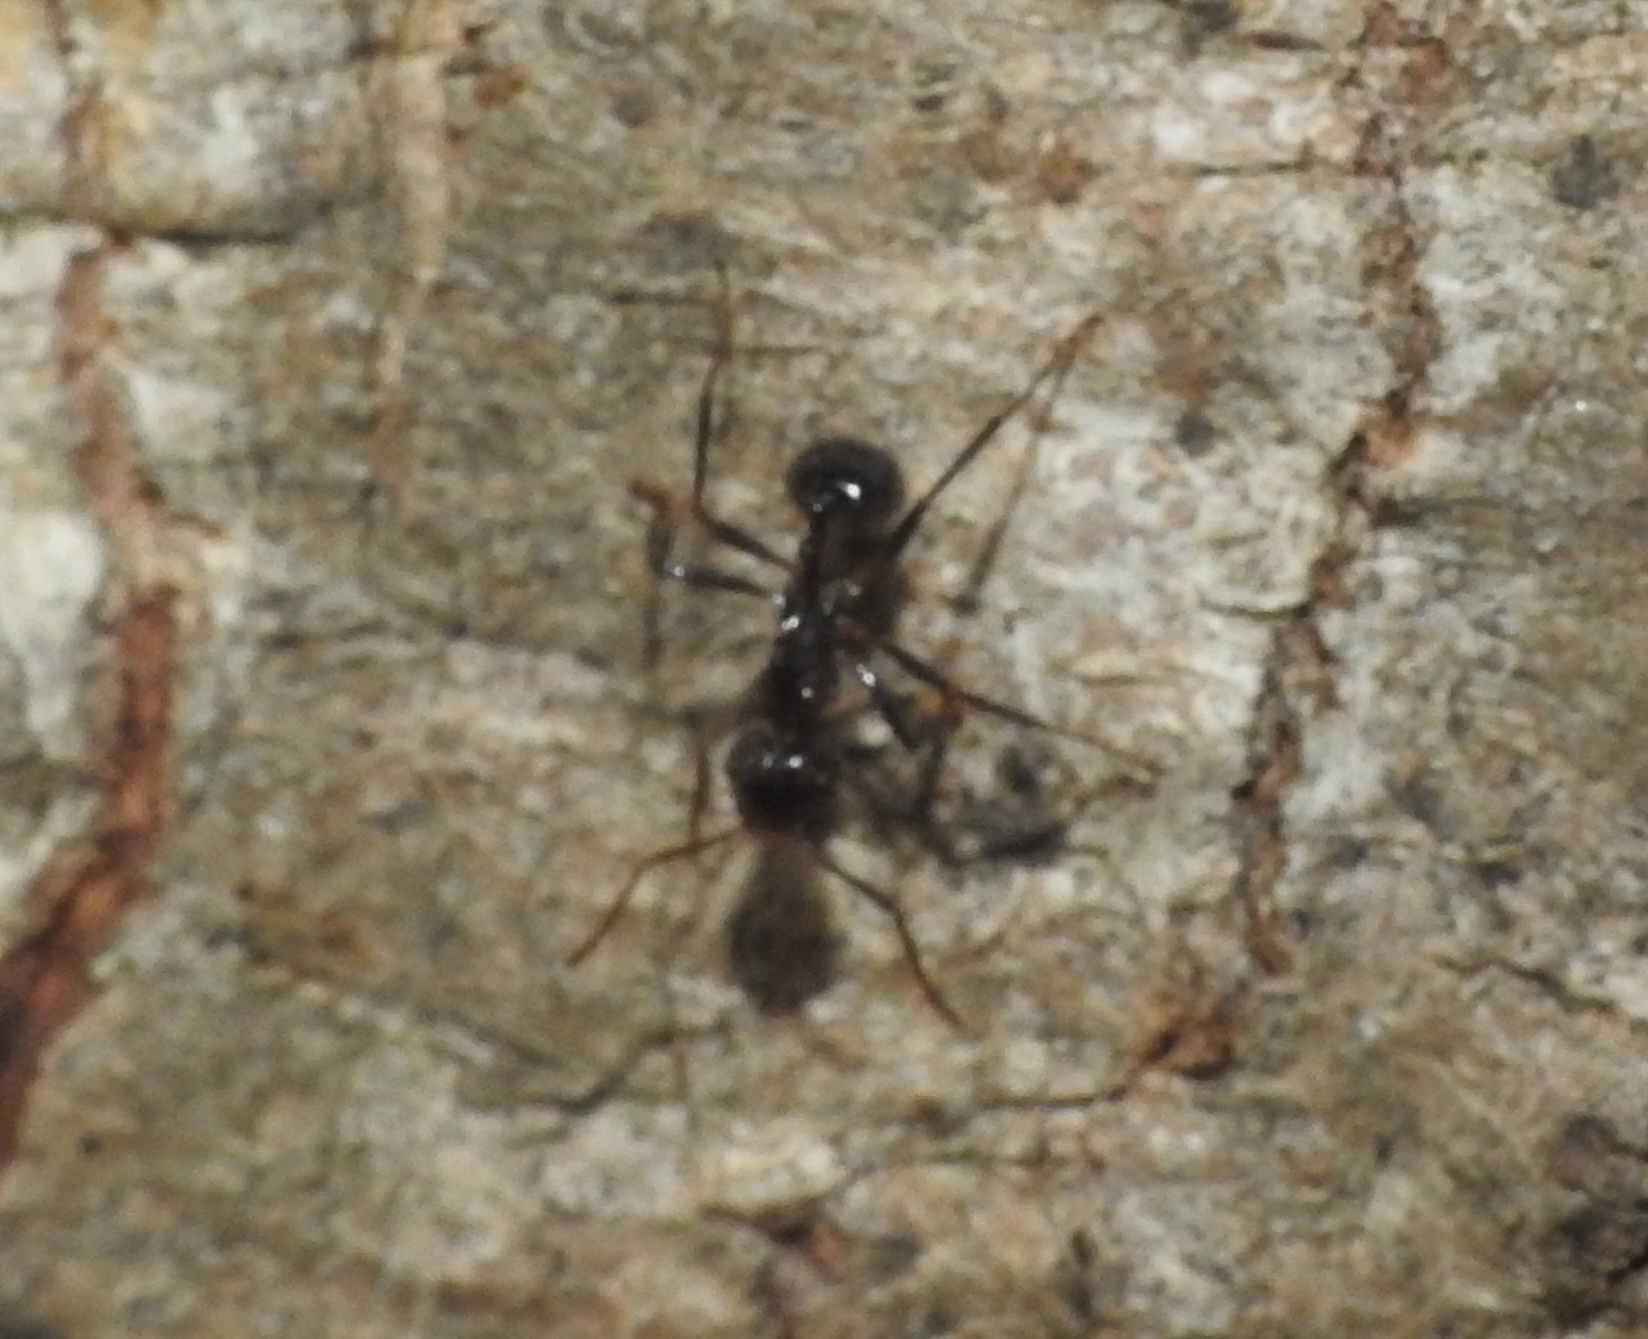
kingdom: Animalia
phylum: Arthropoda
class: Insecta
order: Hymenoptera
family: Formicidae
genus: Myrmicaria
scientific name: Myrmicaria brunnea
